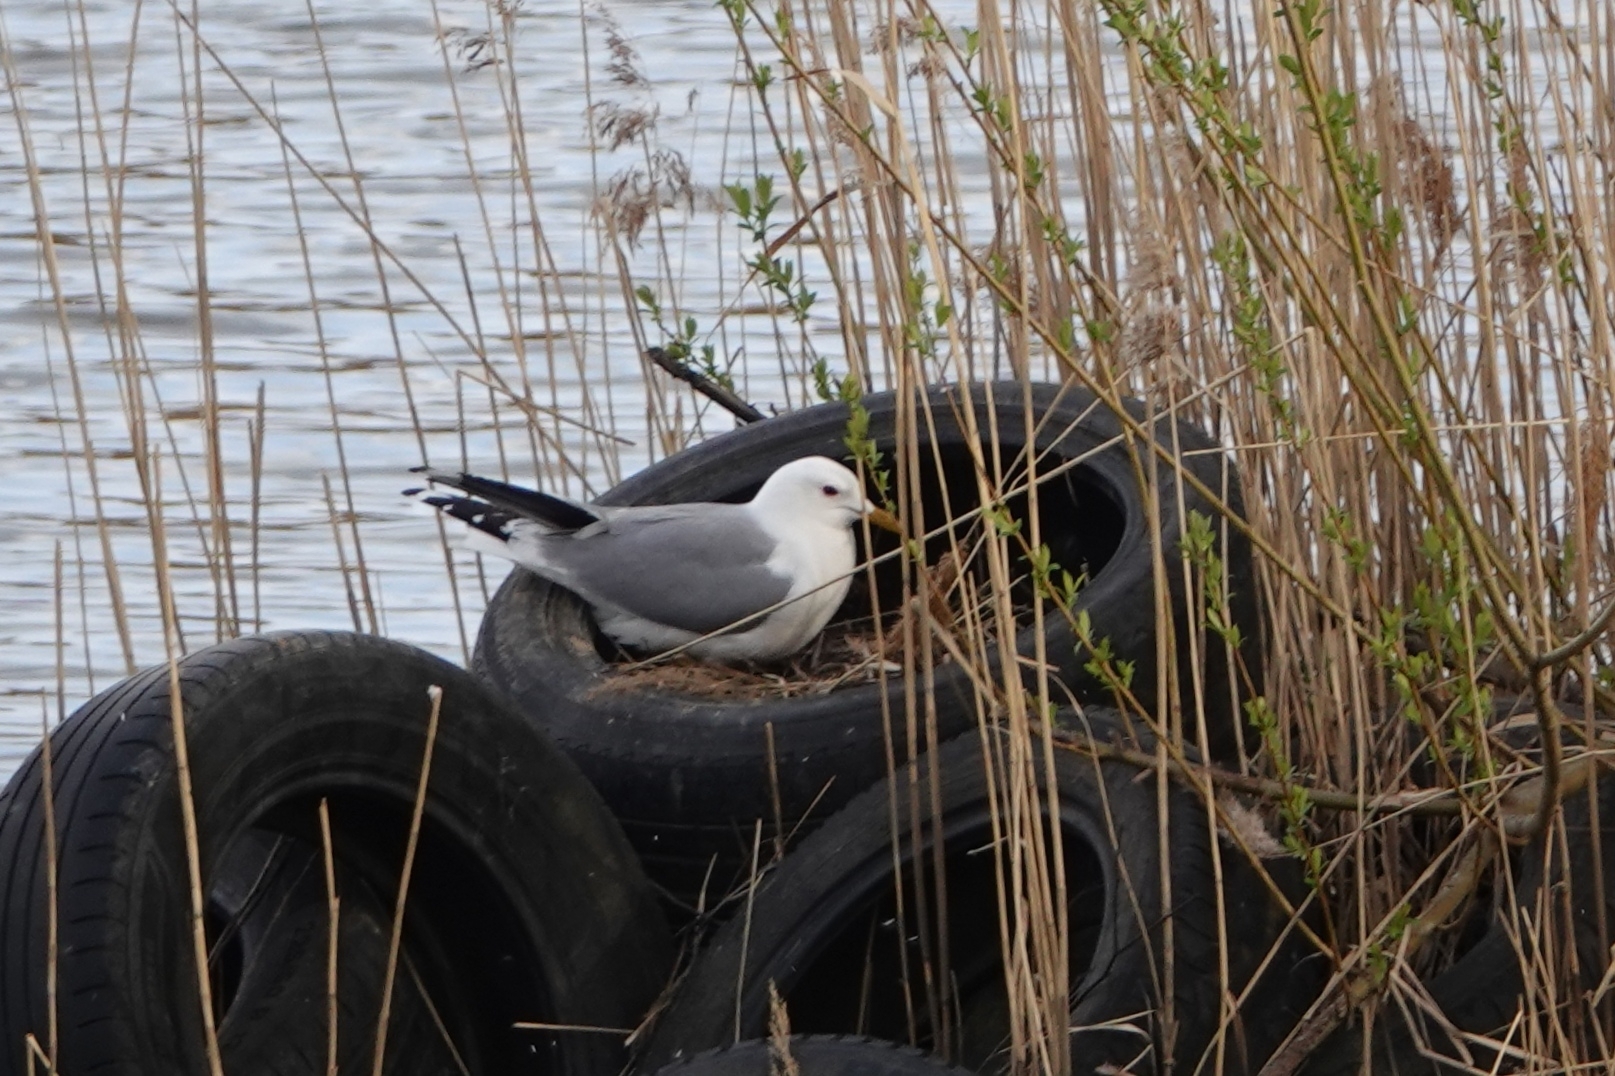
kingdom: Animalia
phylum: Chordata
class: Aves
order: Charadriiformes
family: Laridae
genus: Larus
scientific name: Larus canus
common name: Mew gull
